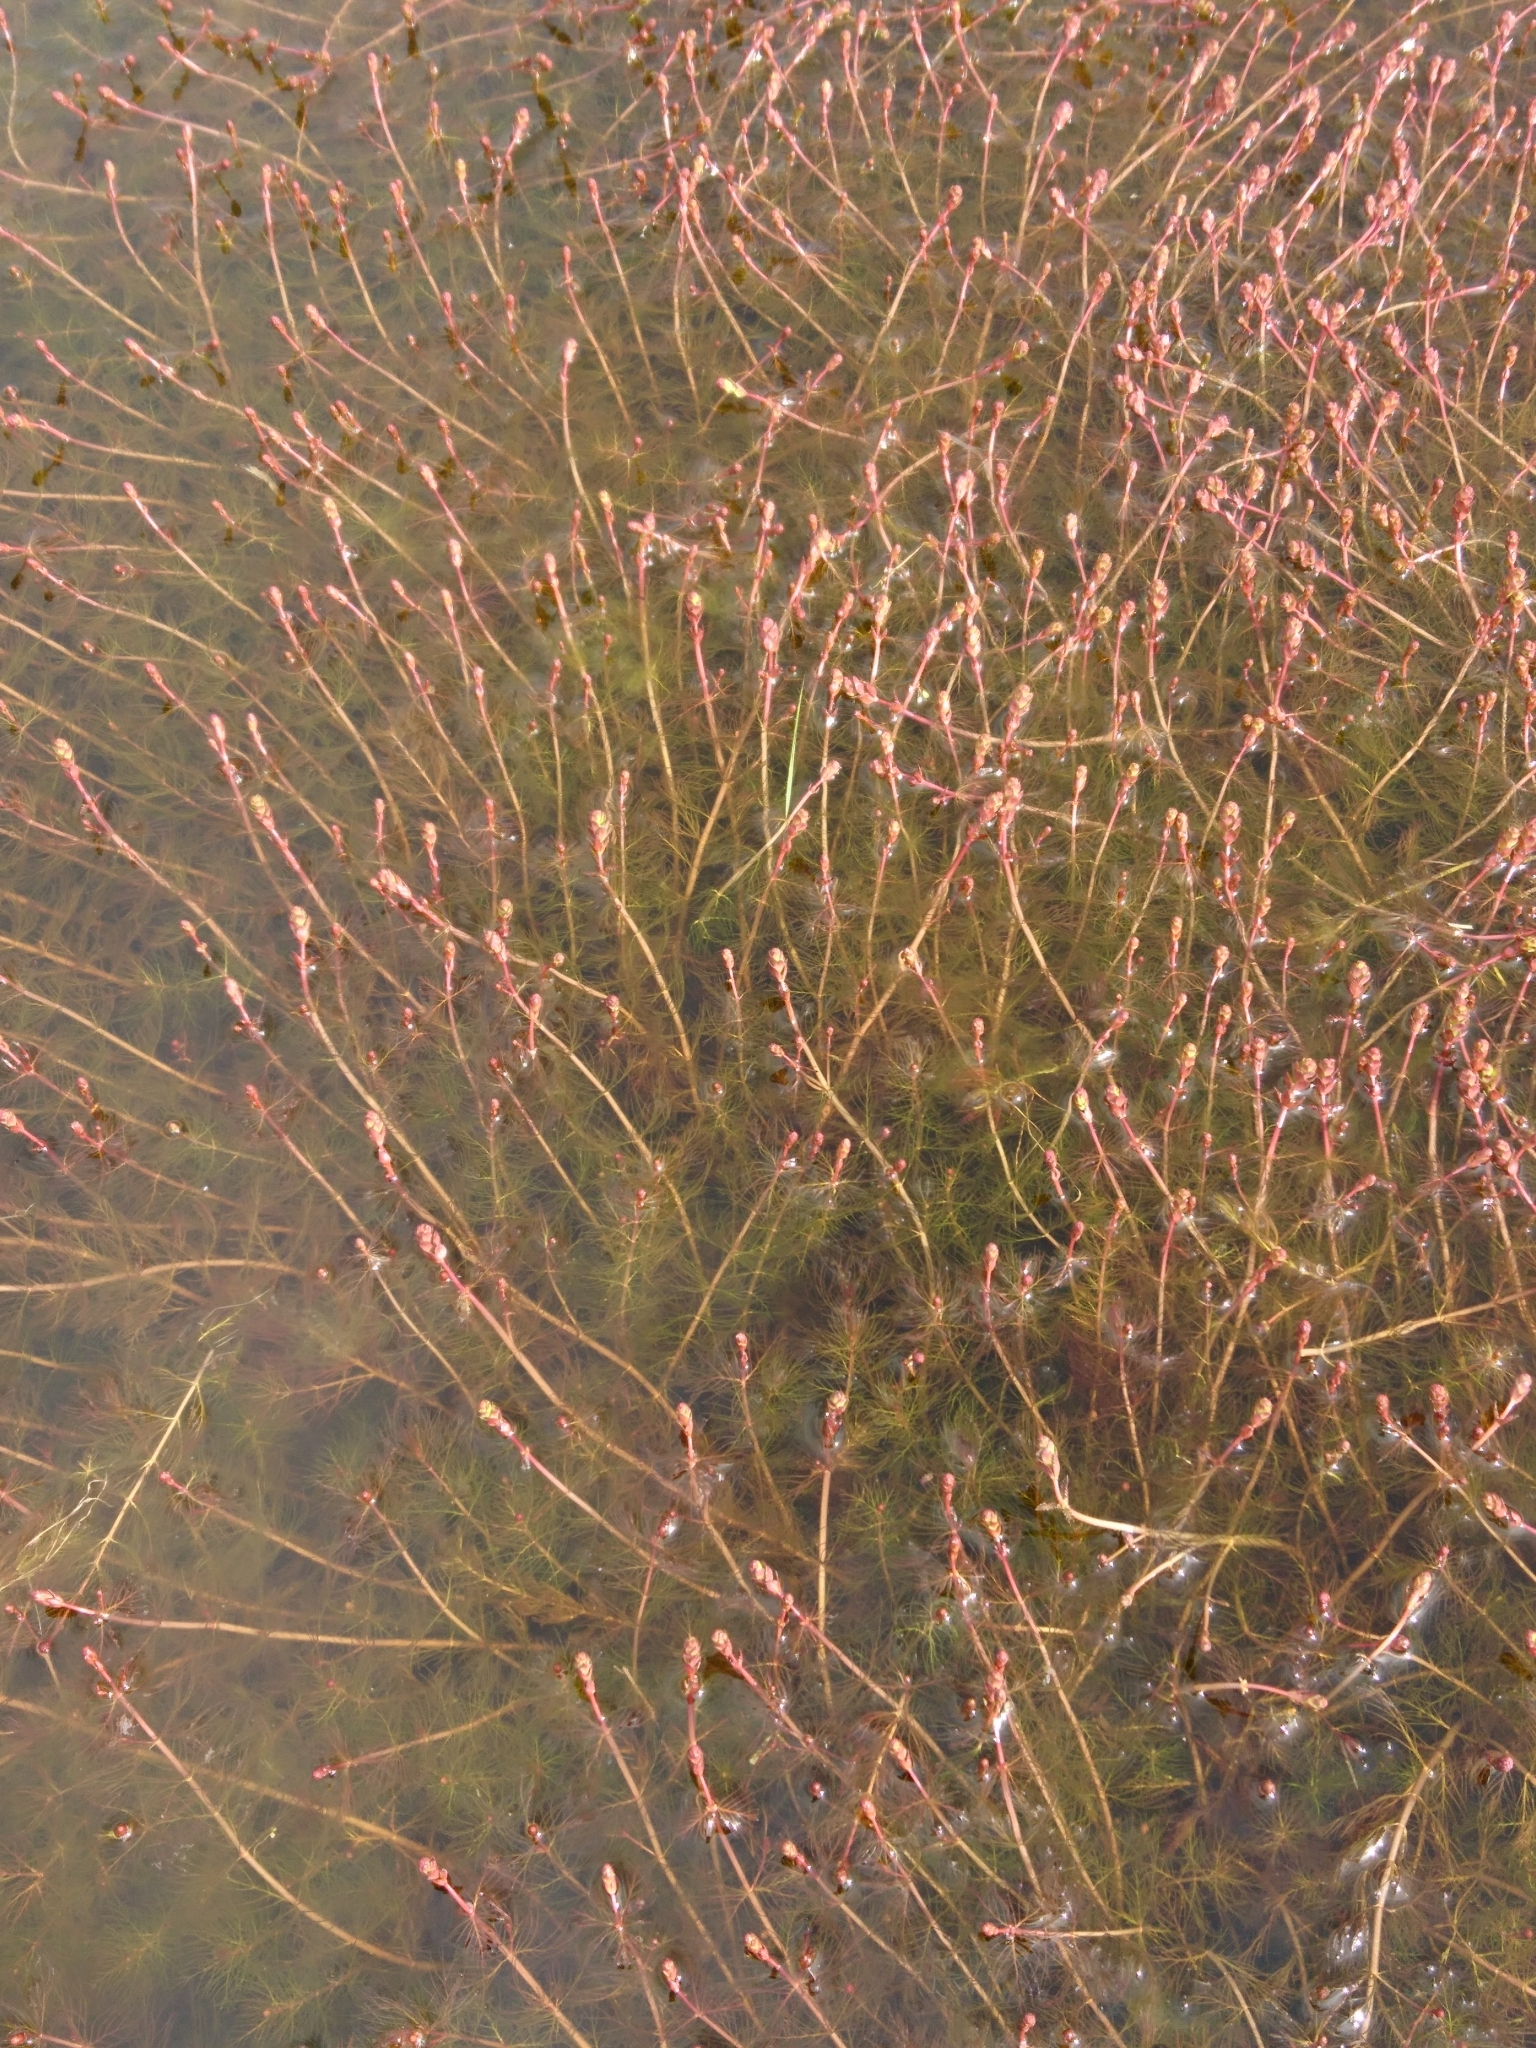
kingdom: Plantae
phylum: Tracheophyta
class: Magnoliopsida
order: Saxifragales
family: Haloragaceae
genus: Myriophyllum
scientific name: Myriophyllum quitense
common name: Andean water milfoil
